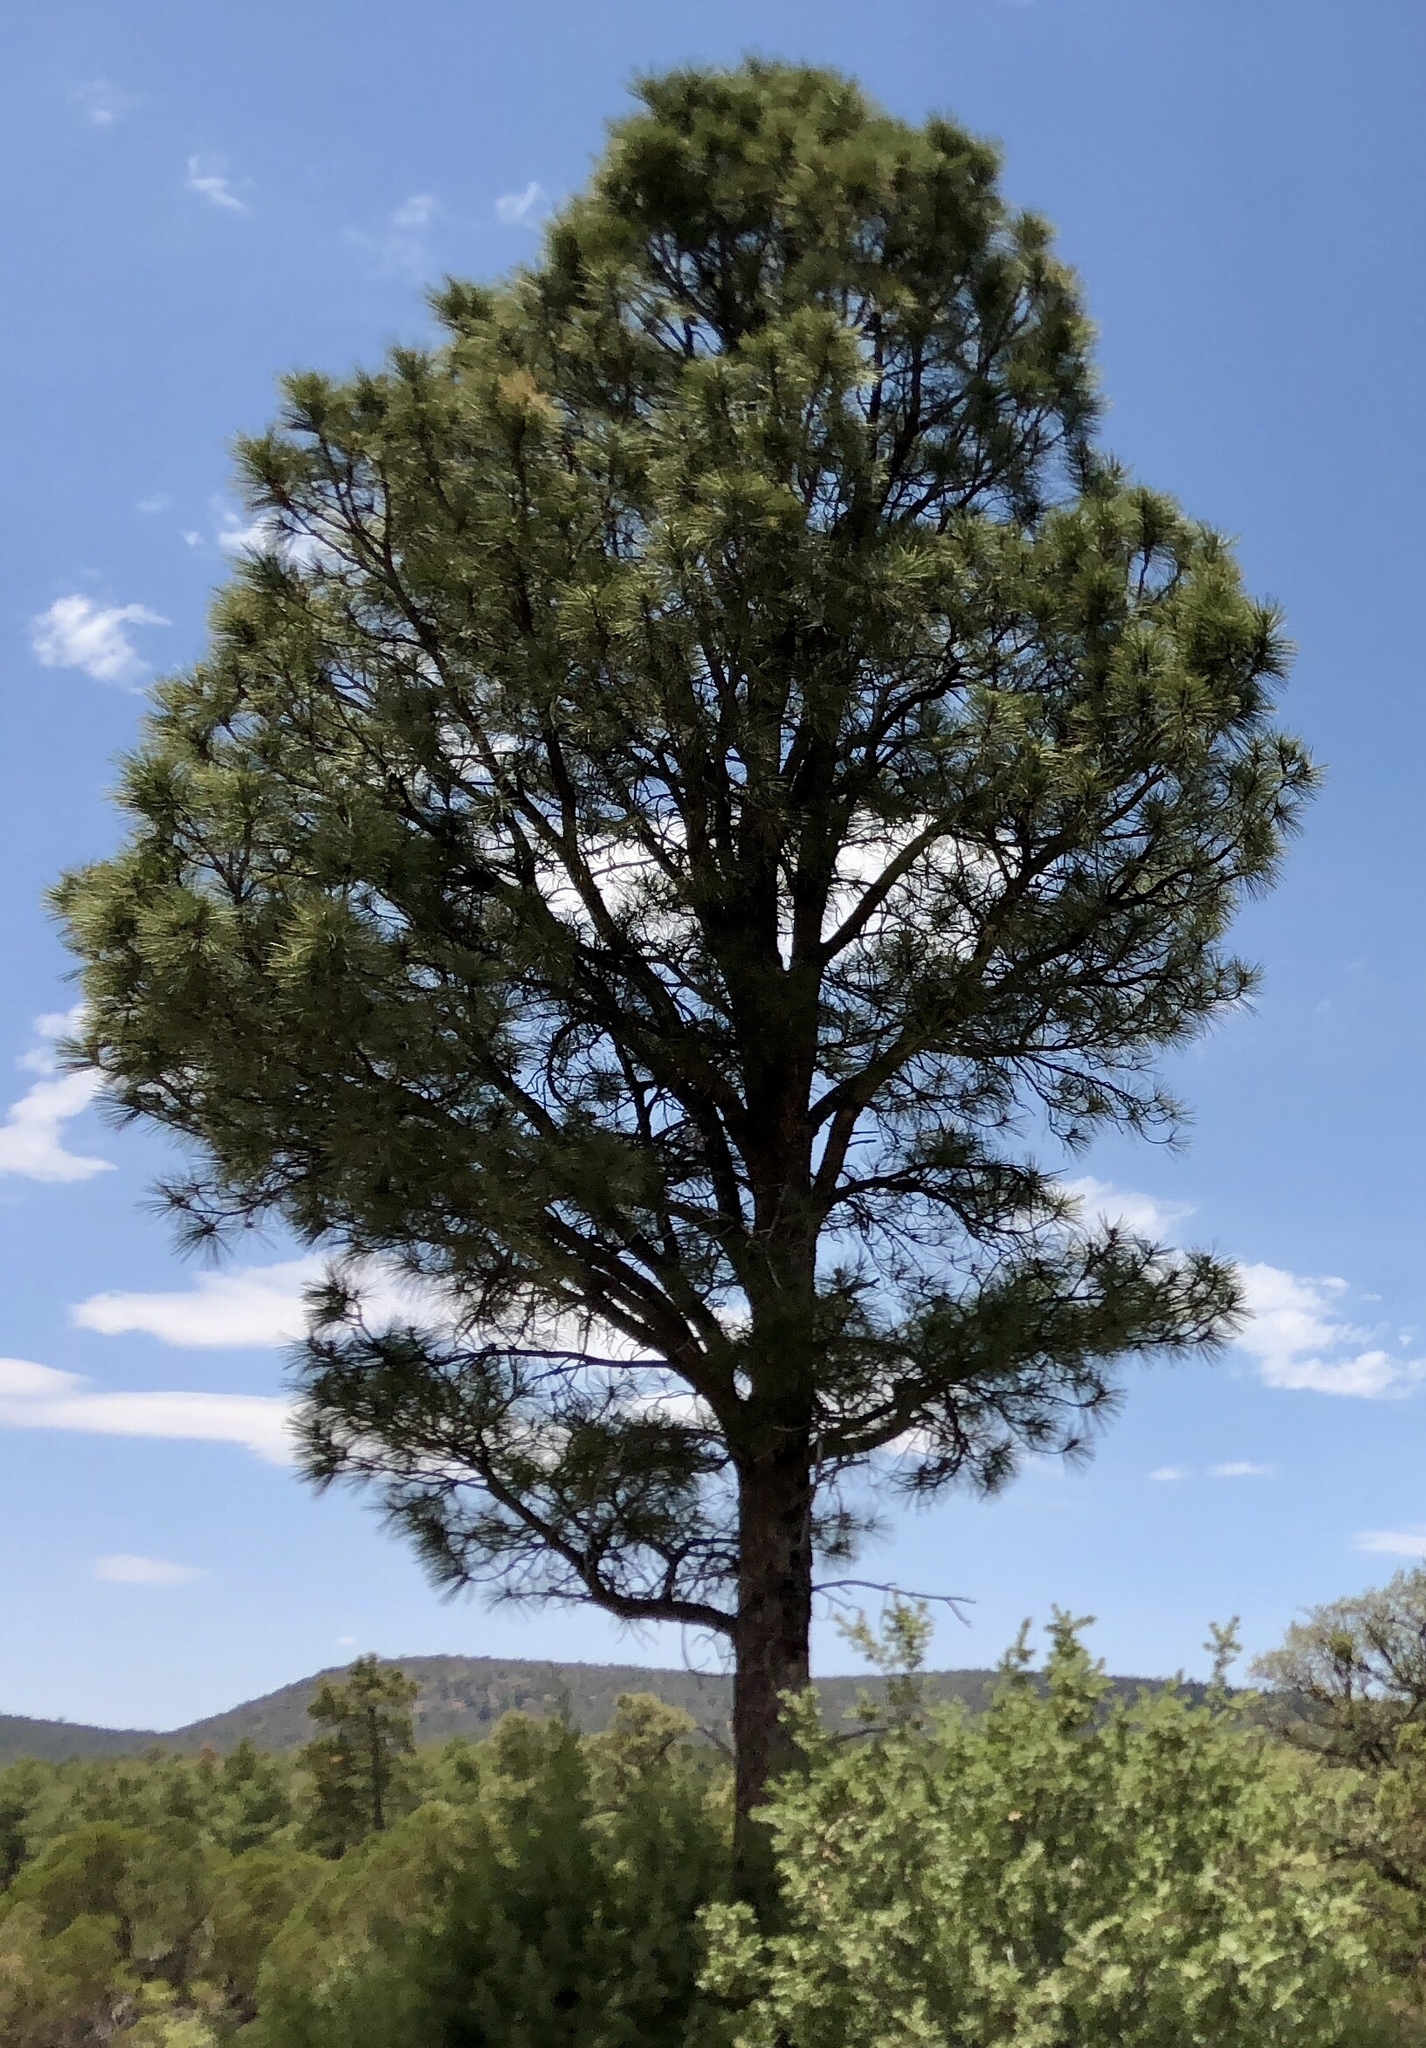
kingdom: Plantae
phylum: Tracheophyta
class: Pinopsida
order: Pinales
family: Pinaceae
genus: Pinus
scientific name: Pinus ponderosa
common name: Western yellow-pine
